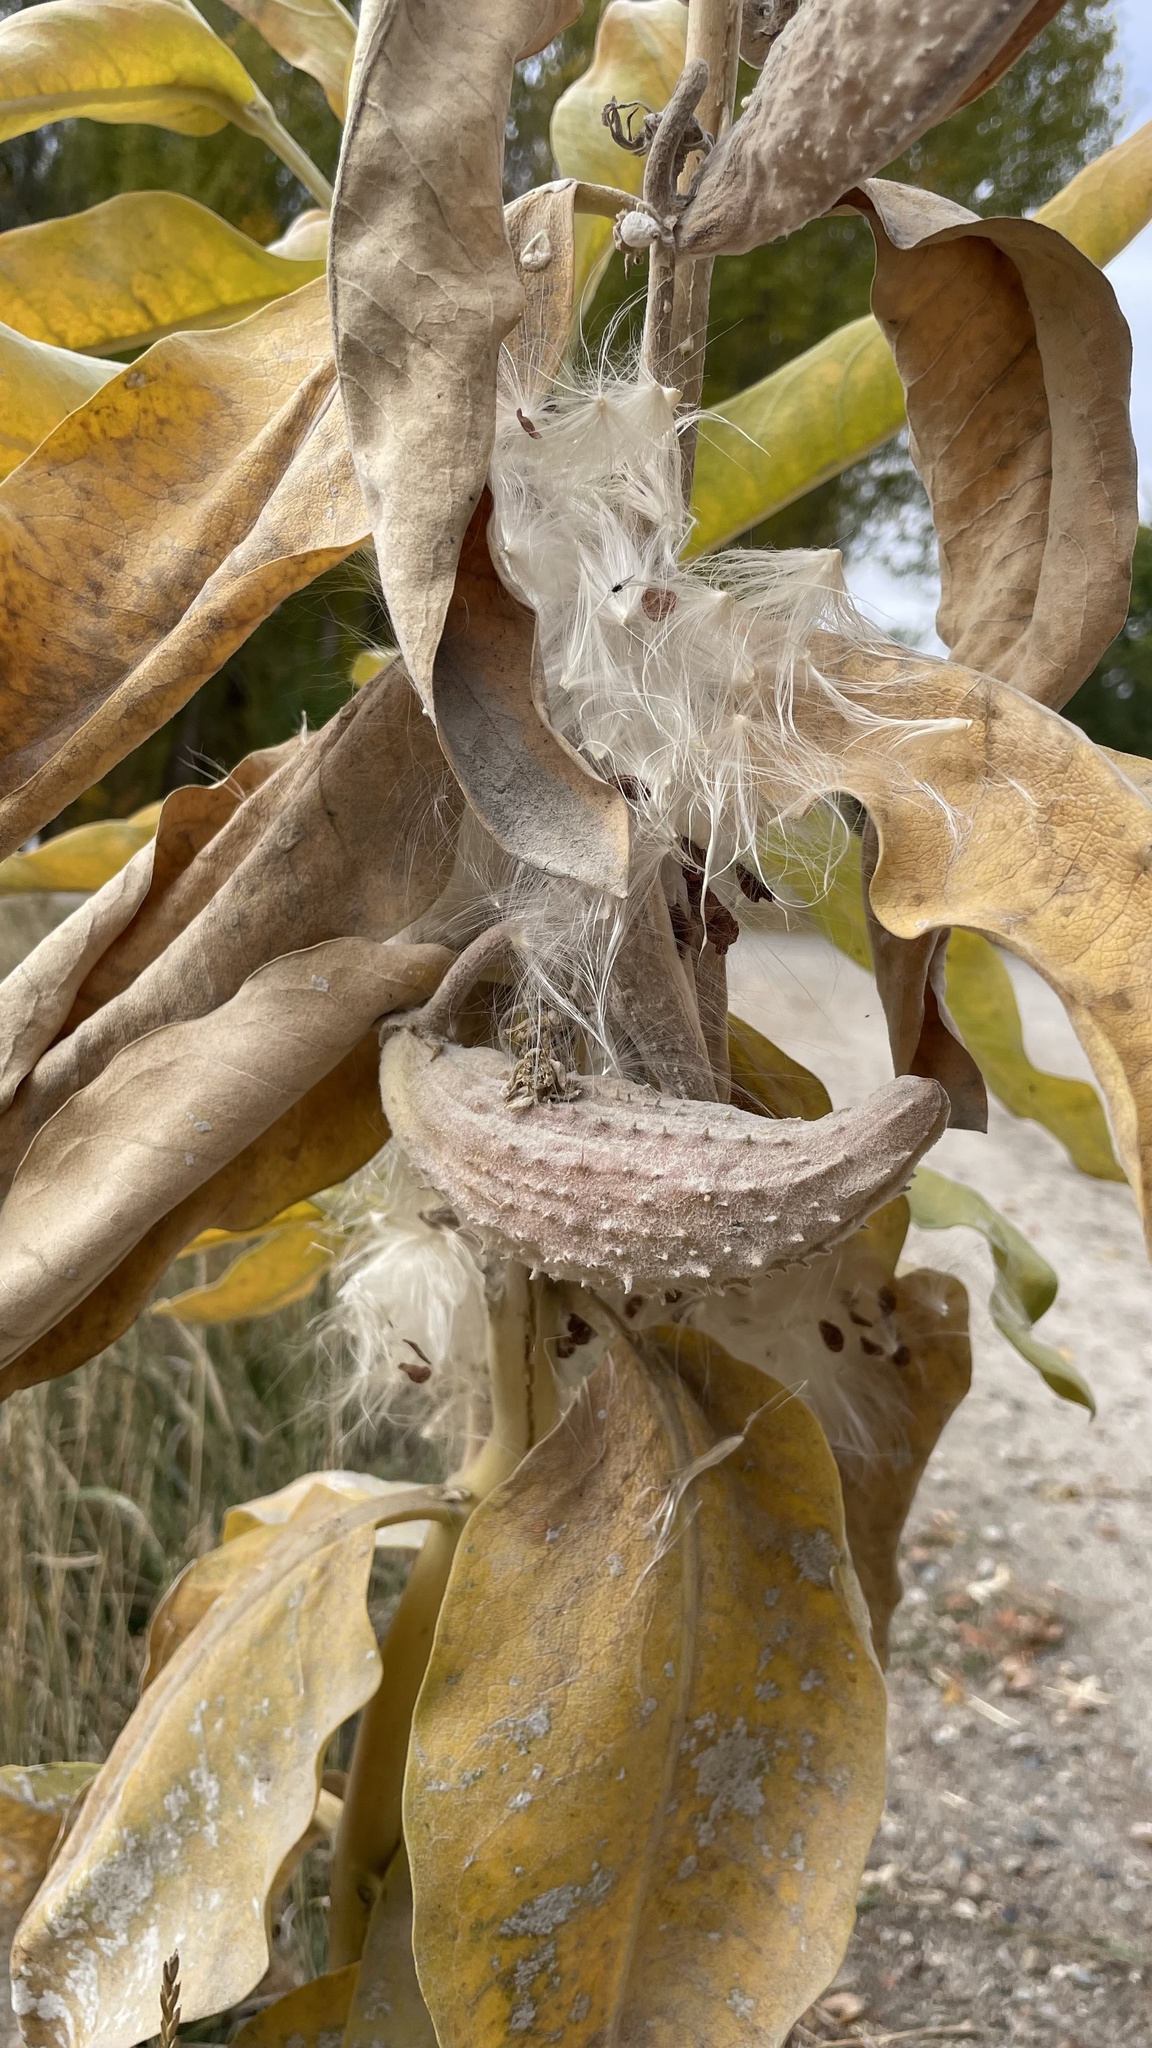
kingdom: Plantae
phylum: Tracheophyta
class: Magnoliopsida
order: Gentianales
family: Apocynaceae
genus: Asclepias
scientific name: Asclepias speciosa
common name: Showy milkweed
